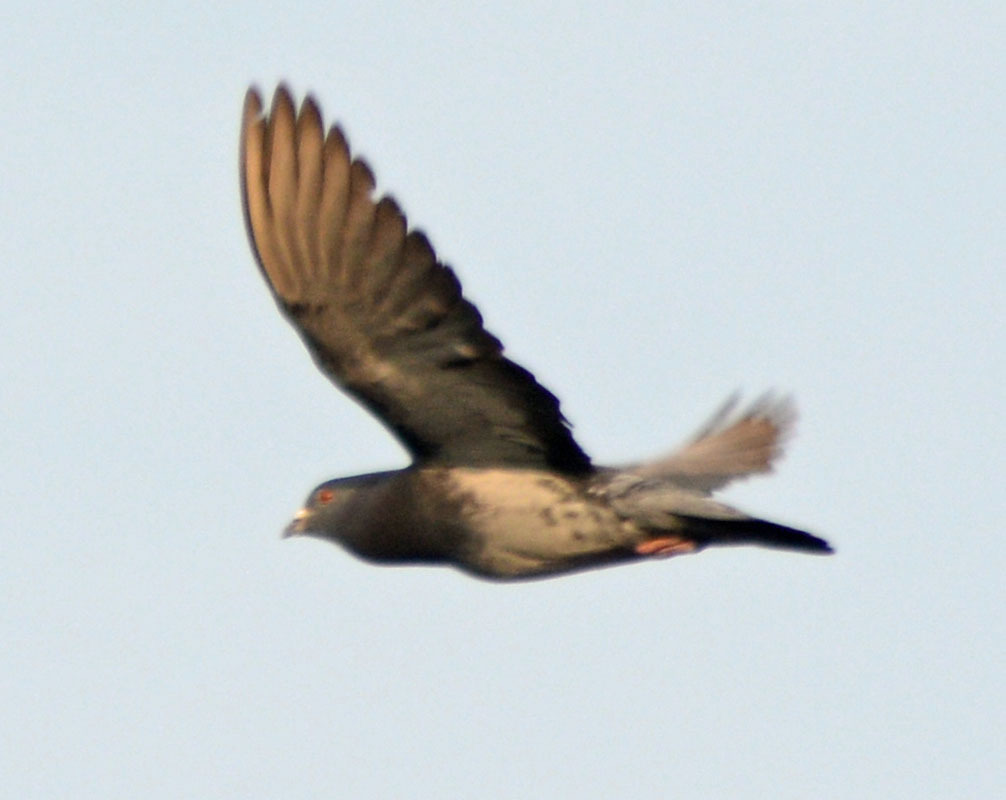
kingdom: Animalia
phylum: Chordata
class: Aves
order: Columbiformes
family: Columbidae
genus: Columba
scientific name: Columba livia
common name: Rock pigeon
